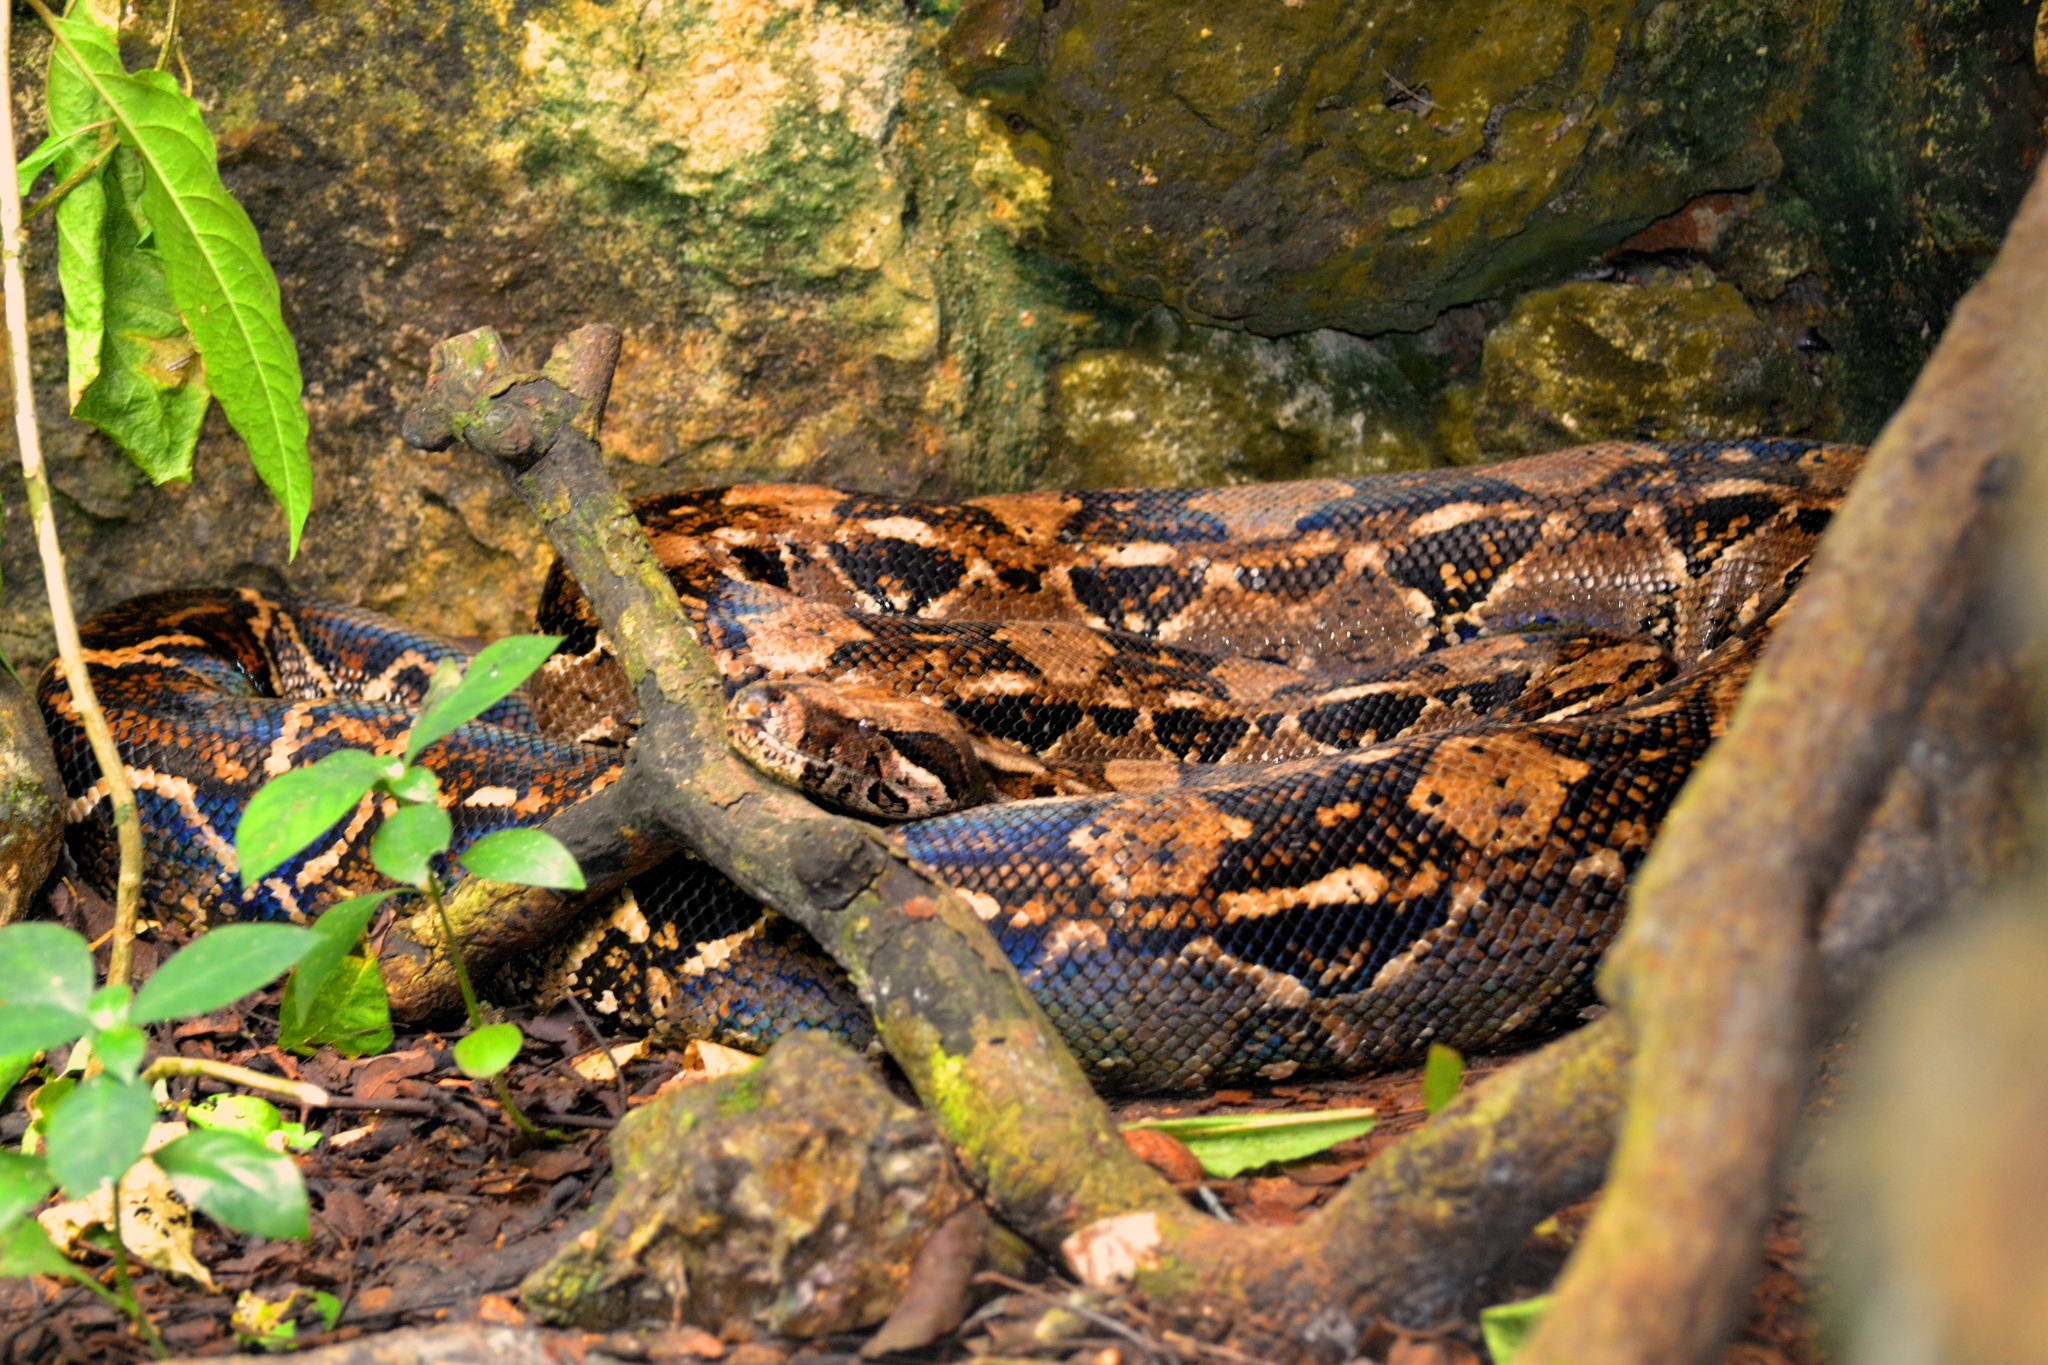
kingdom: Animalia
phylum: Chordata
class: Squamata
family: Boidae
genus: Boa
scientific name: Boa imperator
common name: Central american boa
